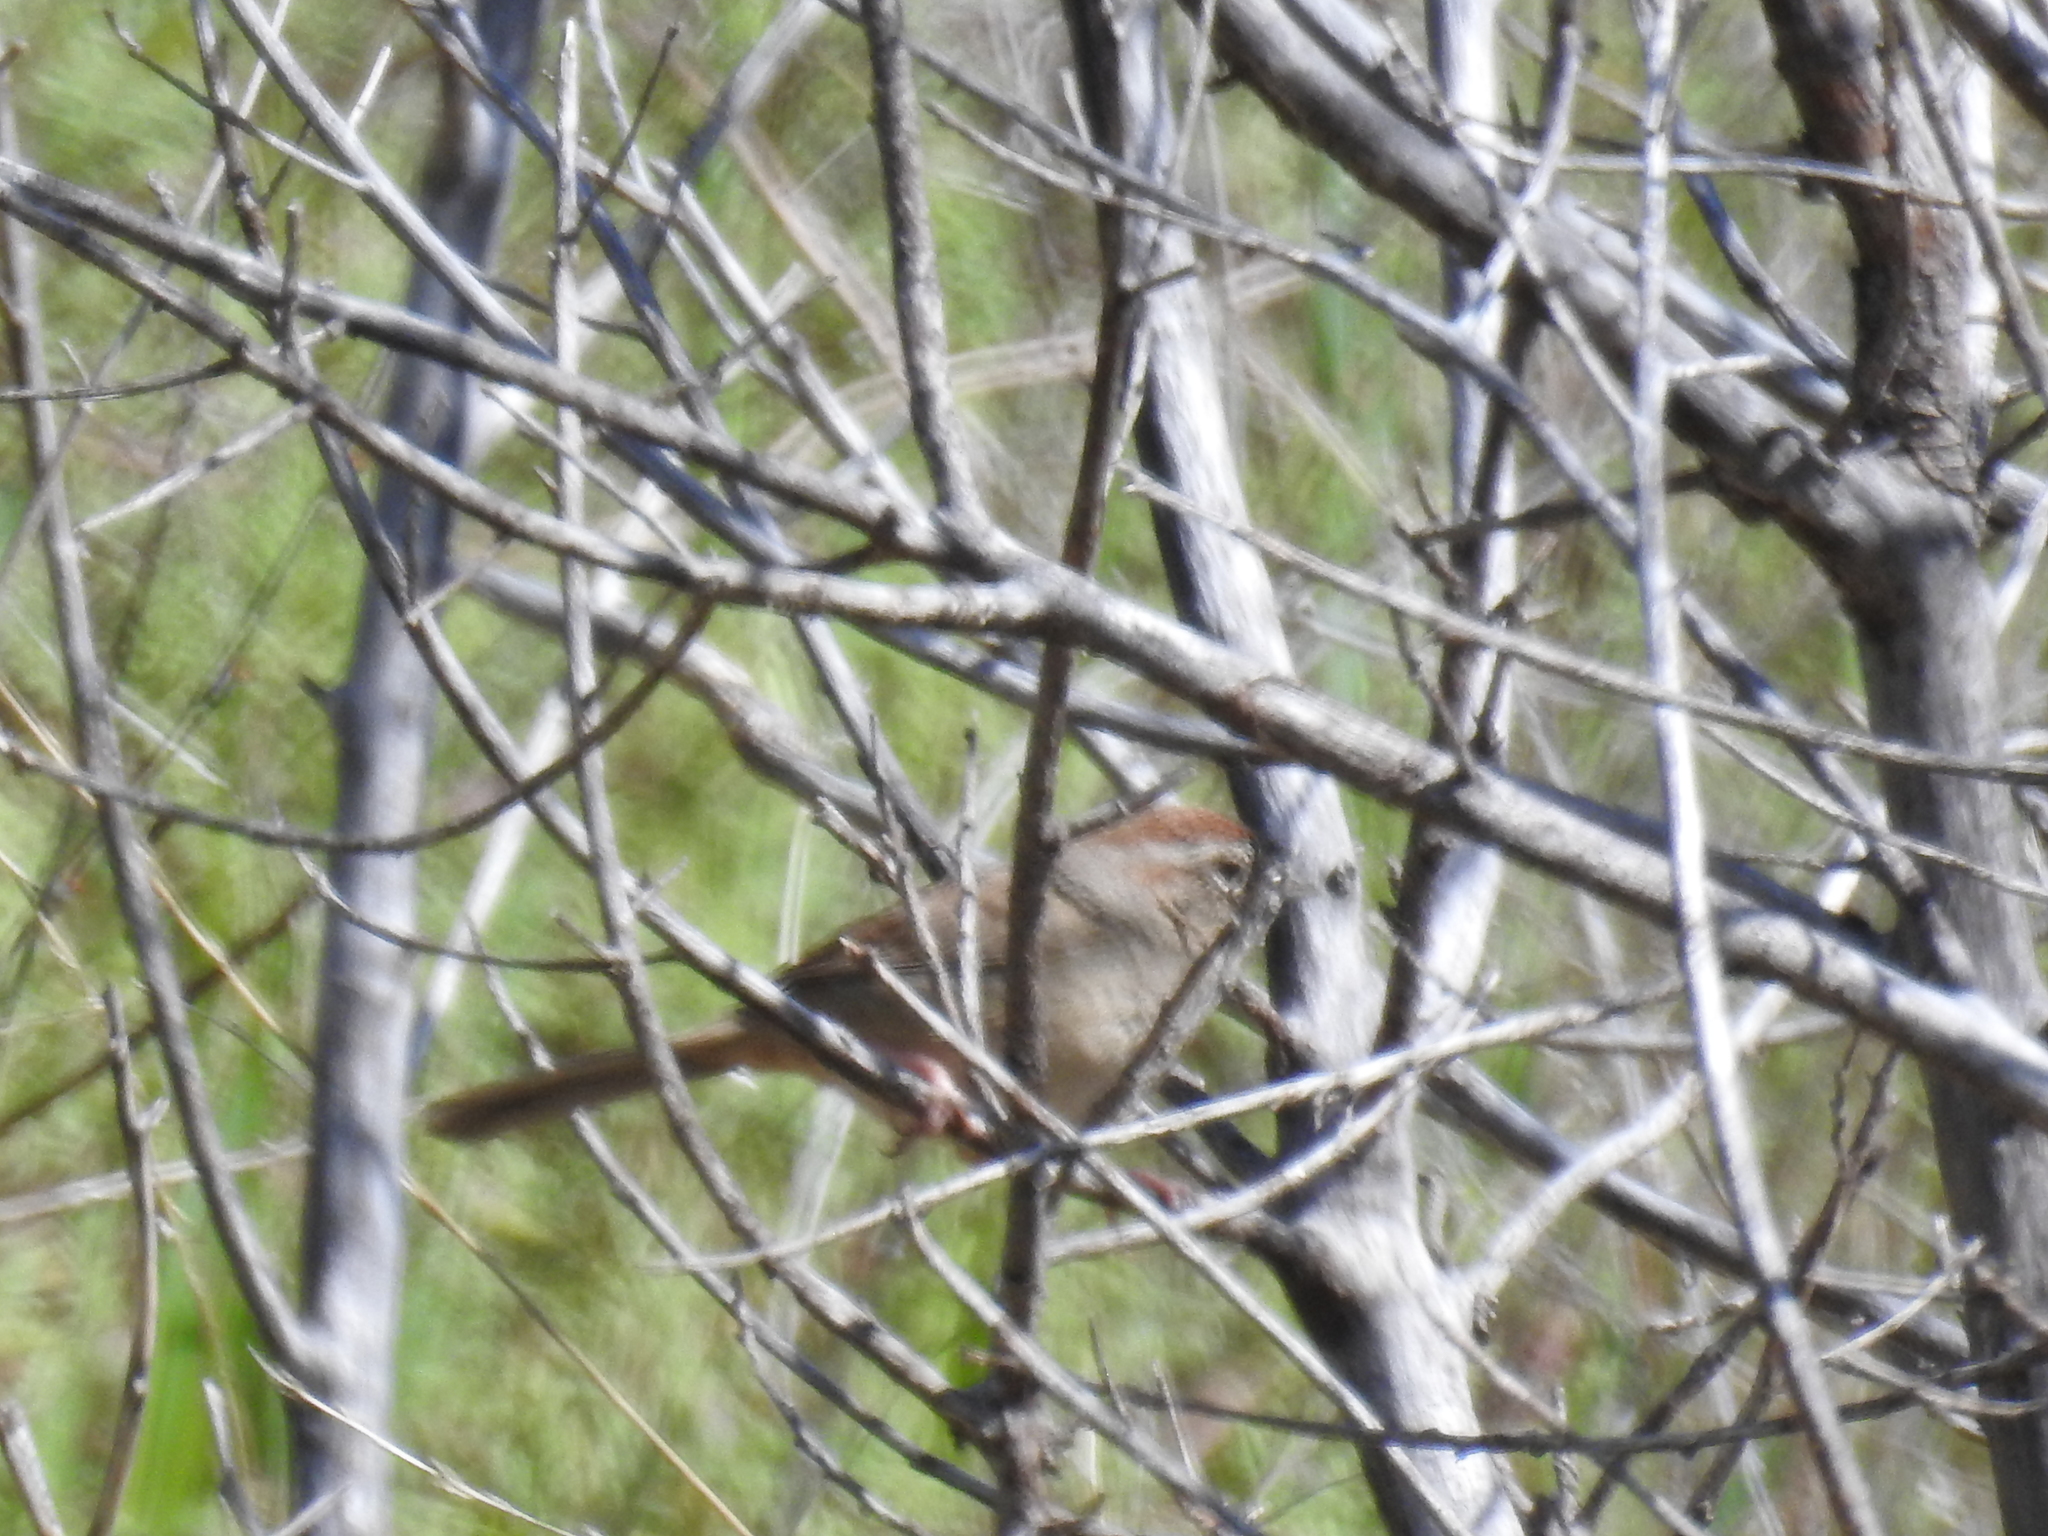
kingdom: Animalia
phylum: Chordata
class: Aves
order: Passeriformes
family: Passerellidae
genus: Aimophila
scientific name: Aimophila ruficeps
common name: Rufous-crowned sparrow
